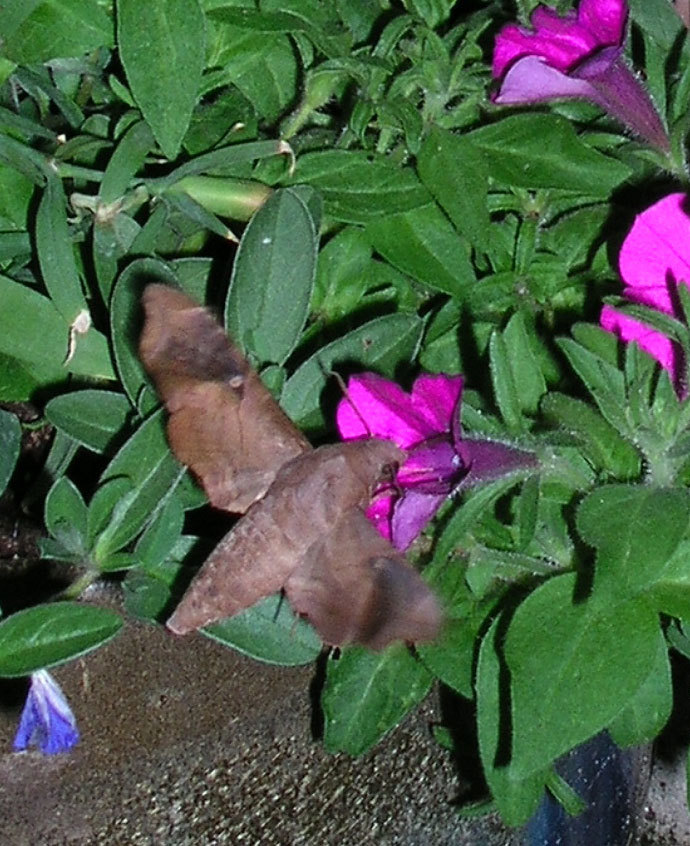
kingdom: Animalia
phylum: Arthropoda
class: Insecta
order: Lepidoptera
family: Sphingidae
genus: Enyo
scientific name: Enyo lugubris
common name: Mournful sphinx
